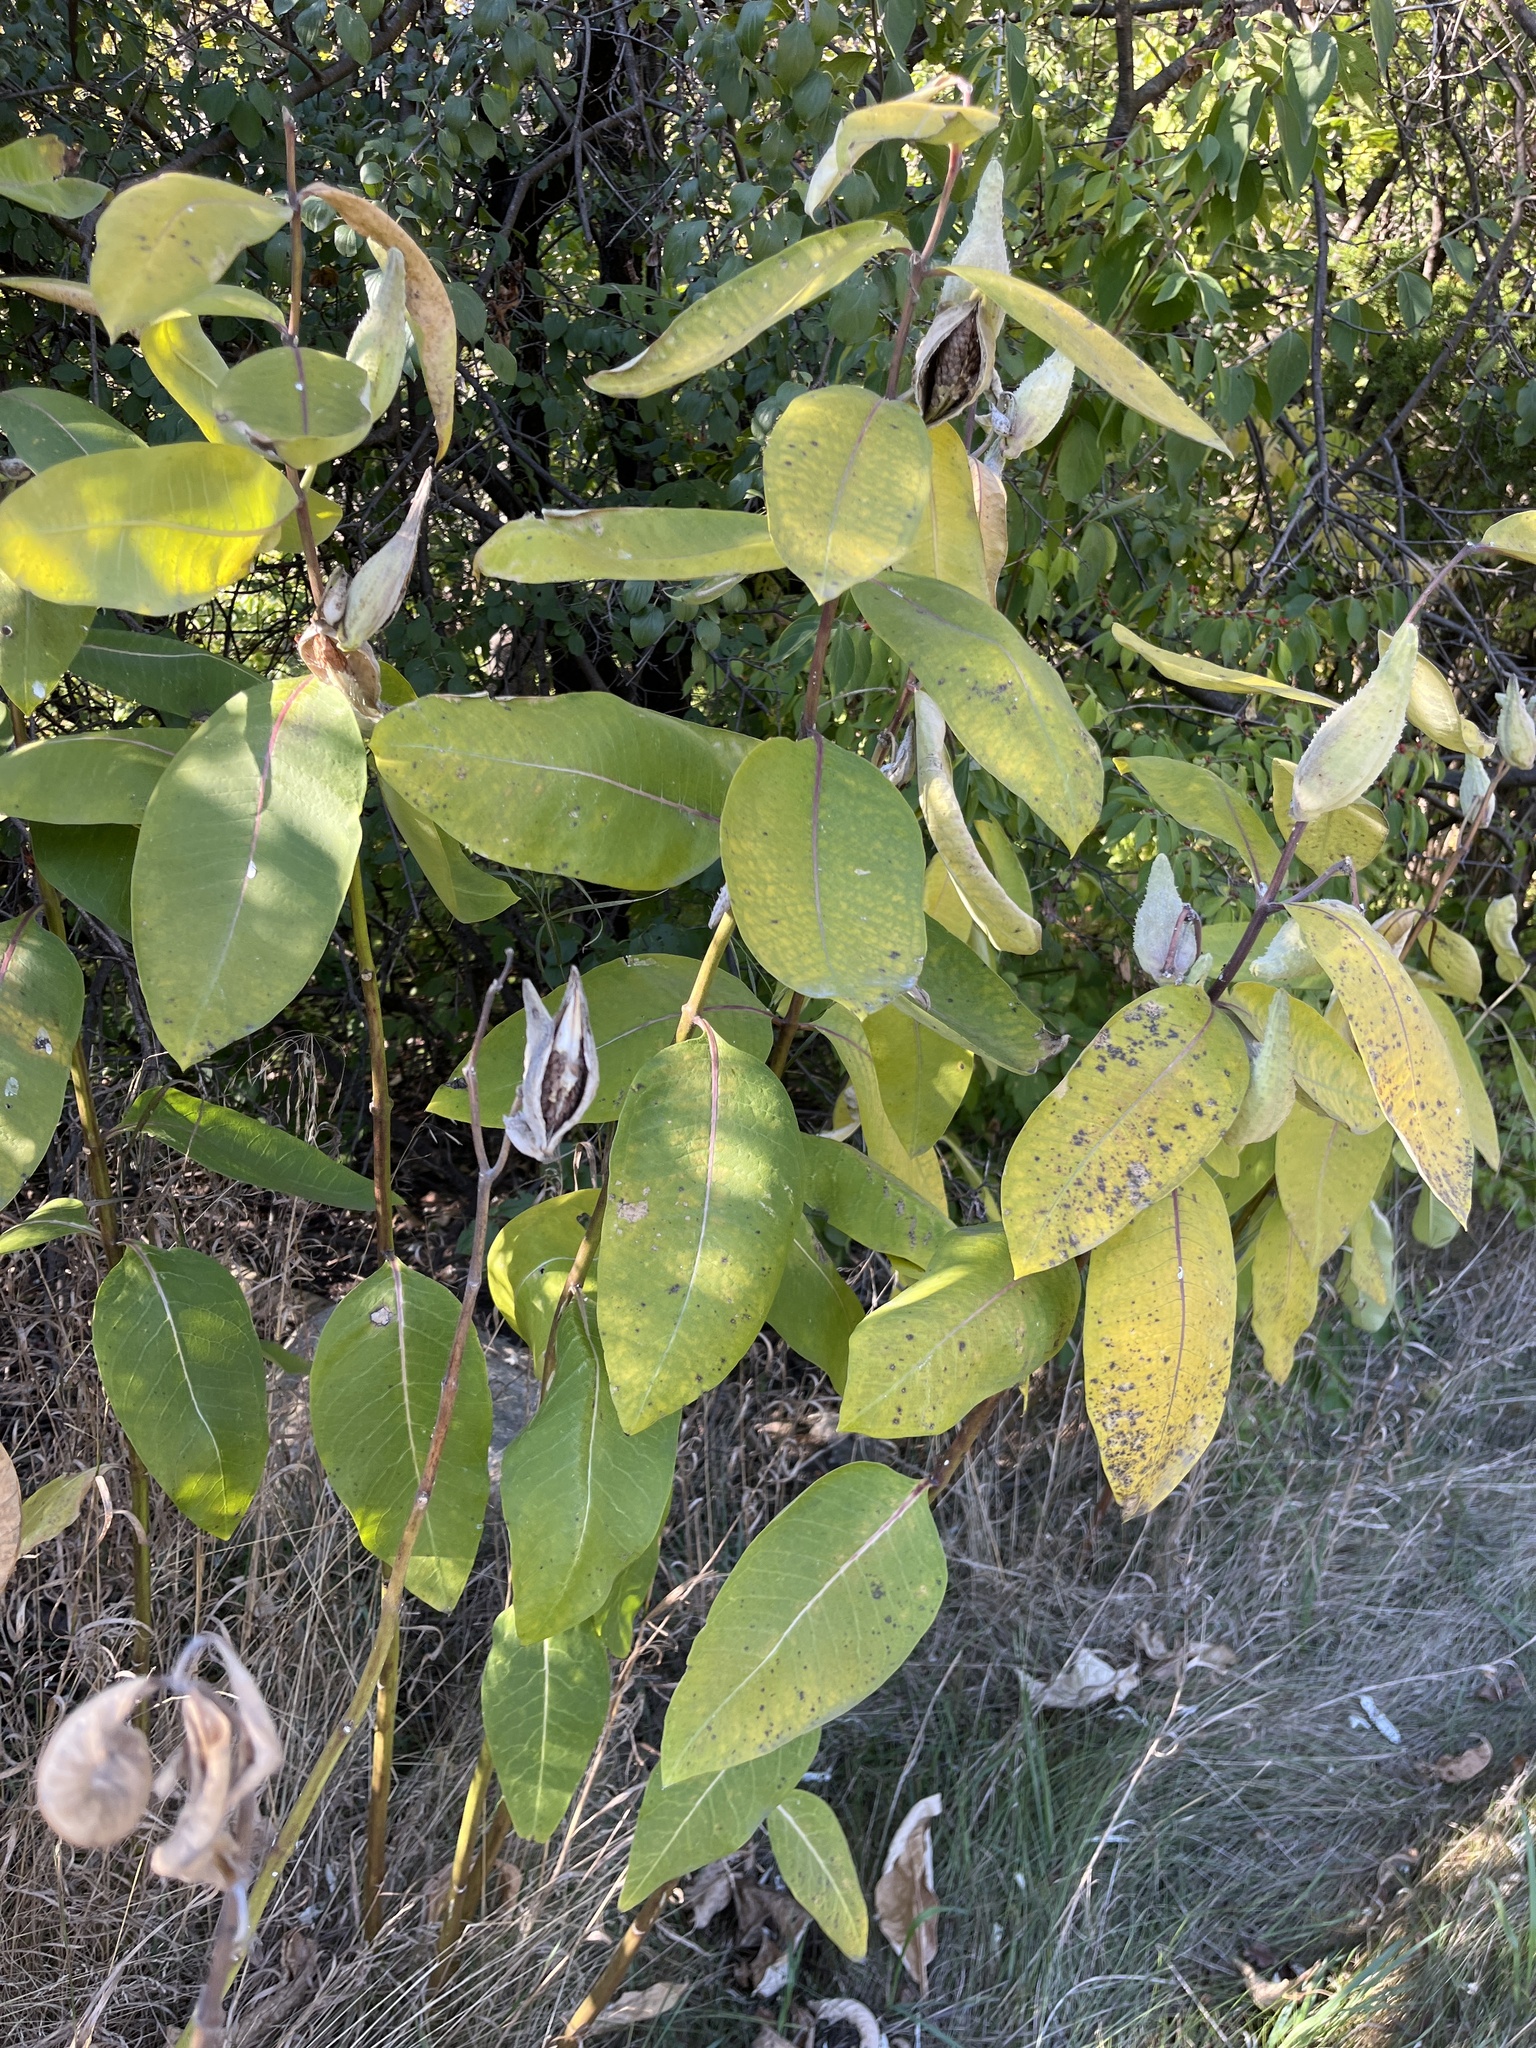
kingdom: Plantae
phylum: Tracheophyta
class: Magnoliopsida
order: Gentianales
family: Apocynaceae
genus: Asclepias
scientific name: Asclepias syriaca
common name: Common milkweed
